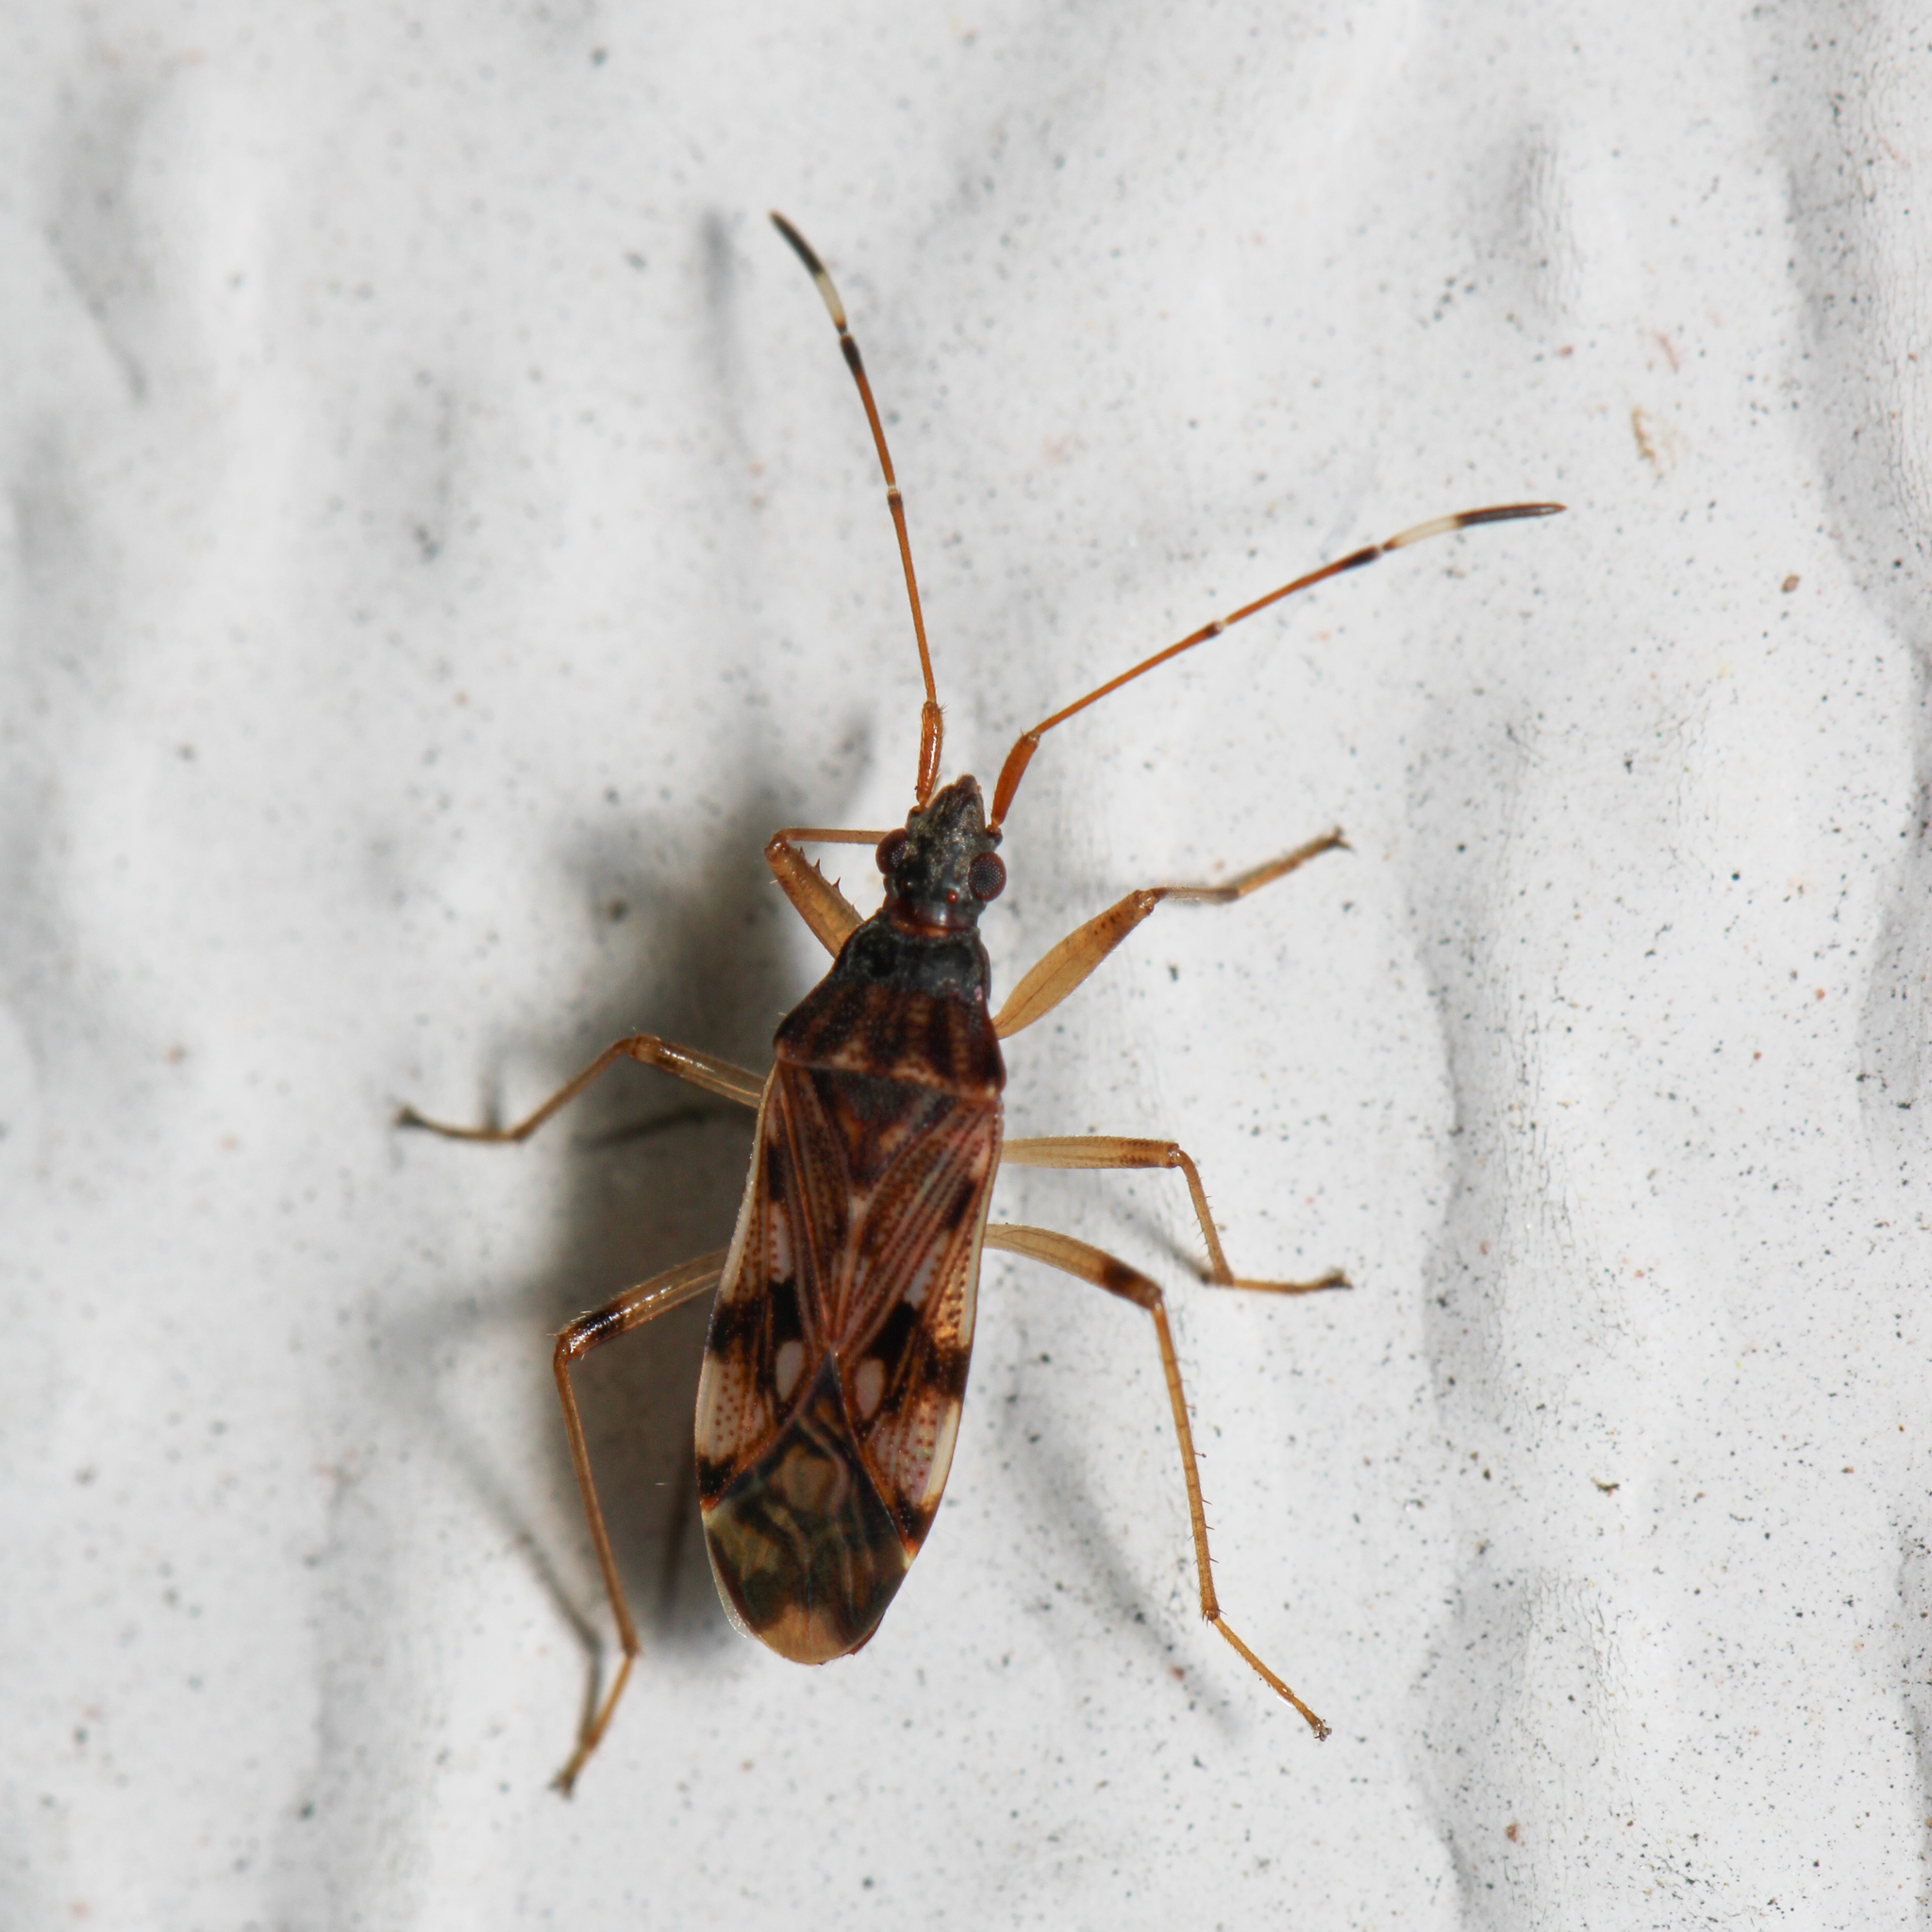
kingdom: Animalia
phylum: Arthropoda
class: Insecta
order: Hemiptera
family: Rhyparochromidae
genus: Ozophora
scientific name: Ozophora picturata
